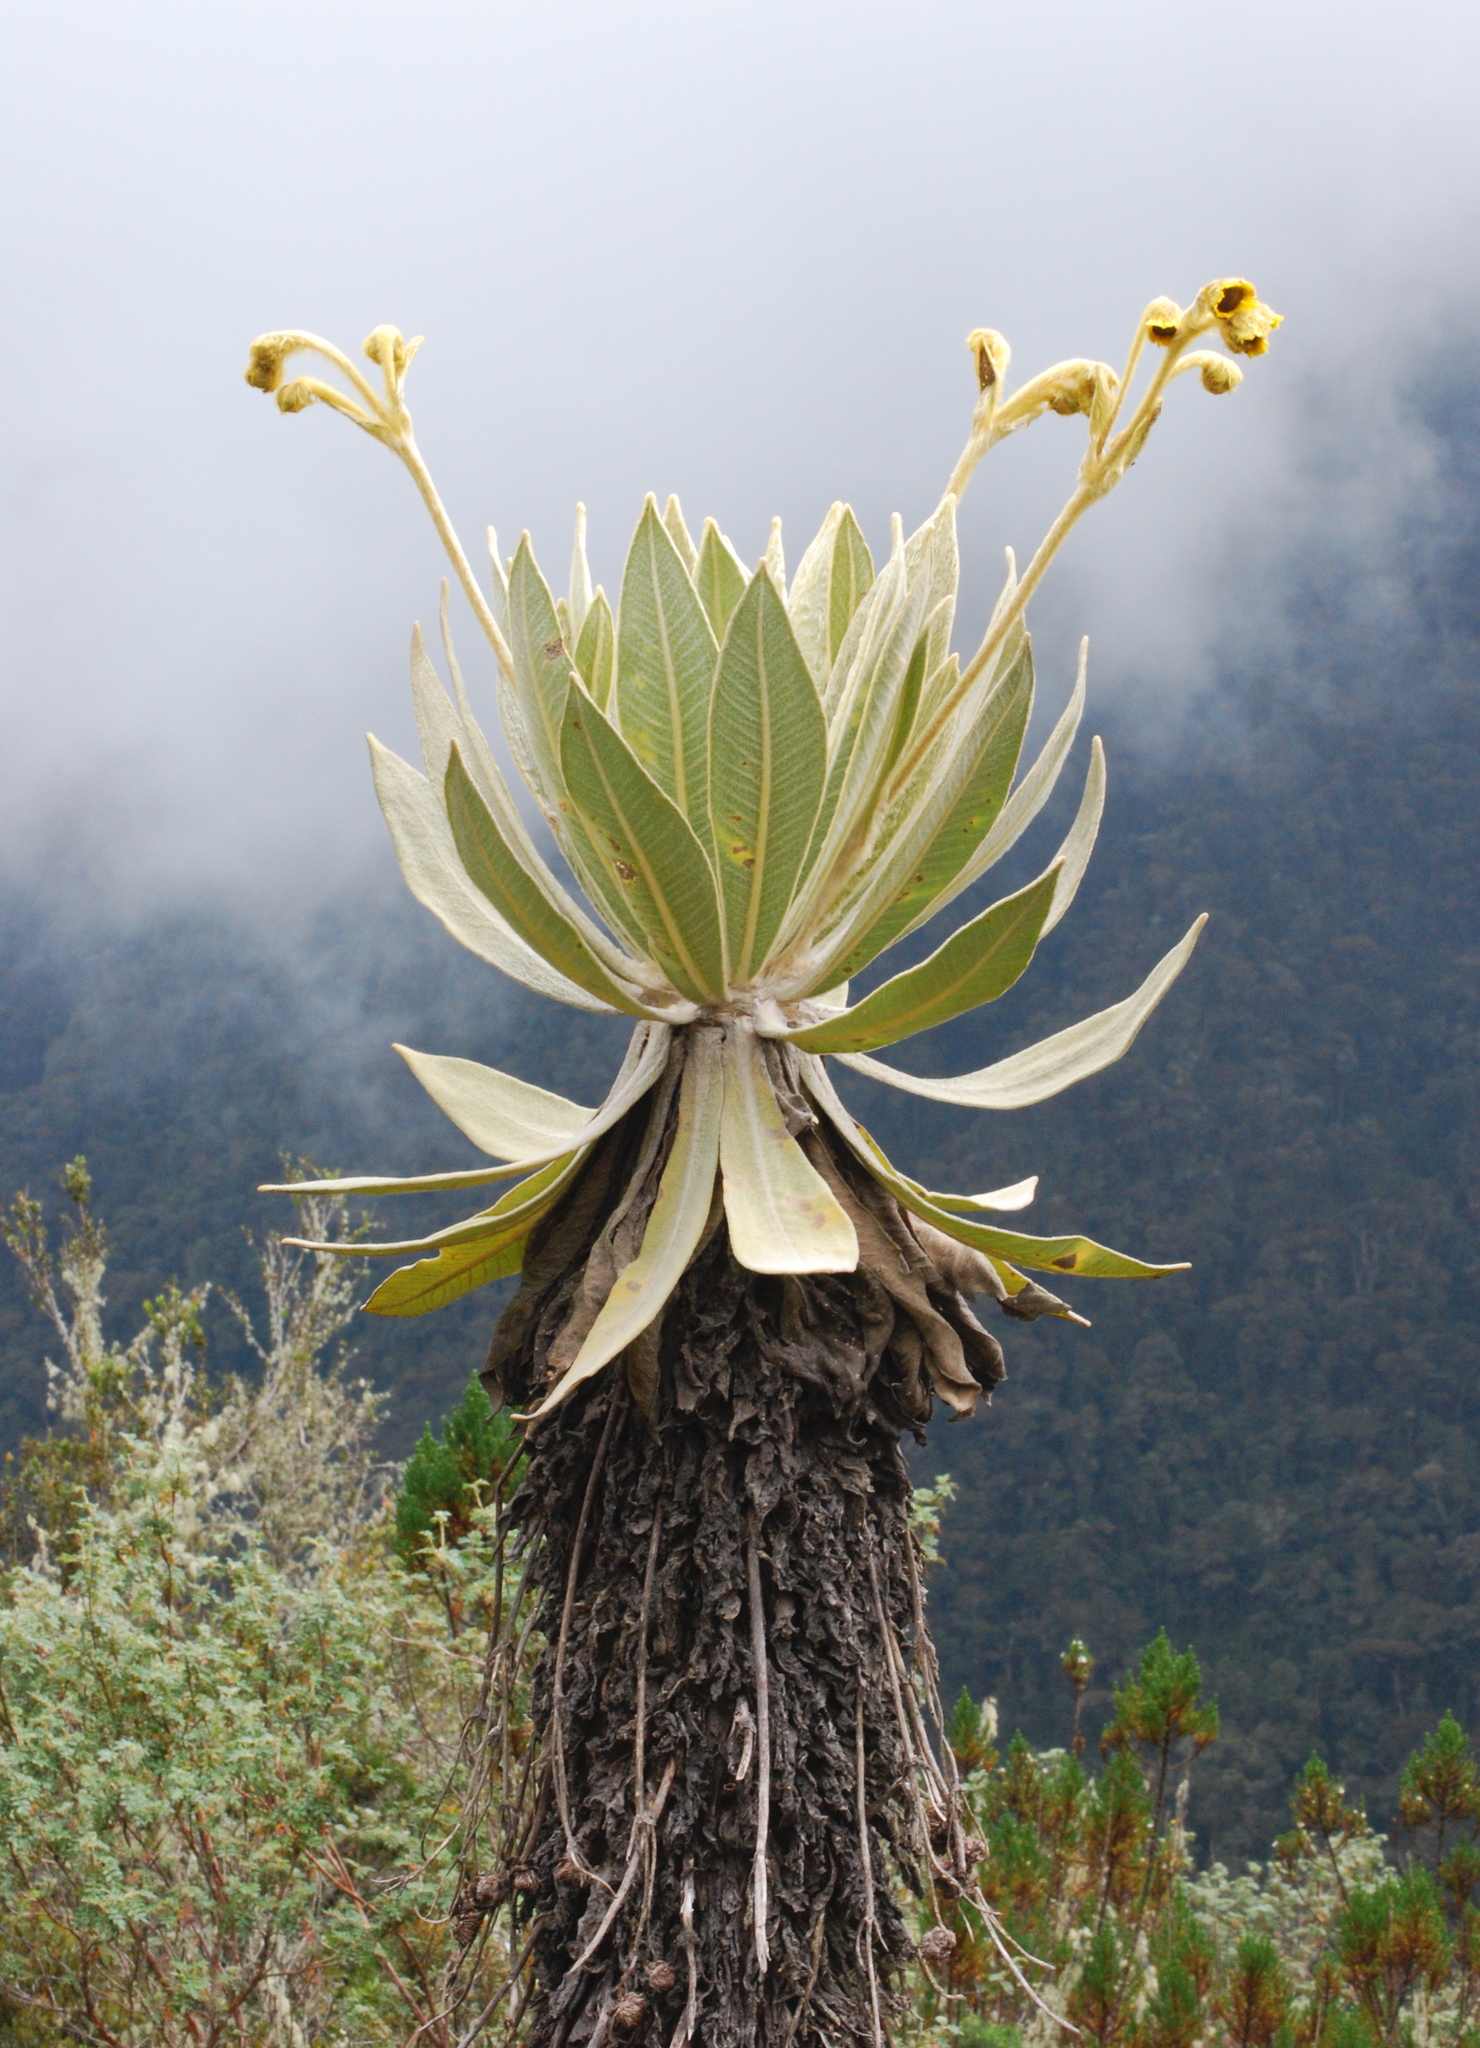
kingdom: Plantae
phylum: Tracheophyta
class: Magnoliopsida
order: Asterales
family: Asteraceae
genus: Espeletia
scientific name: Espeletia frontinoensis
